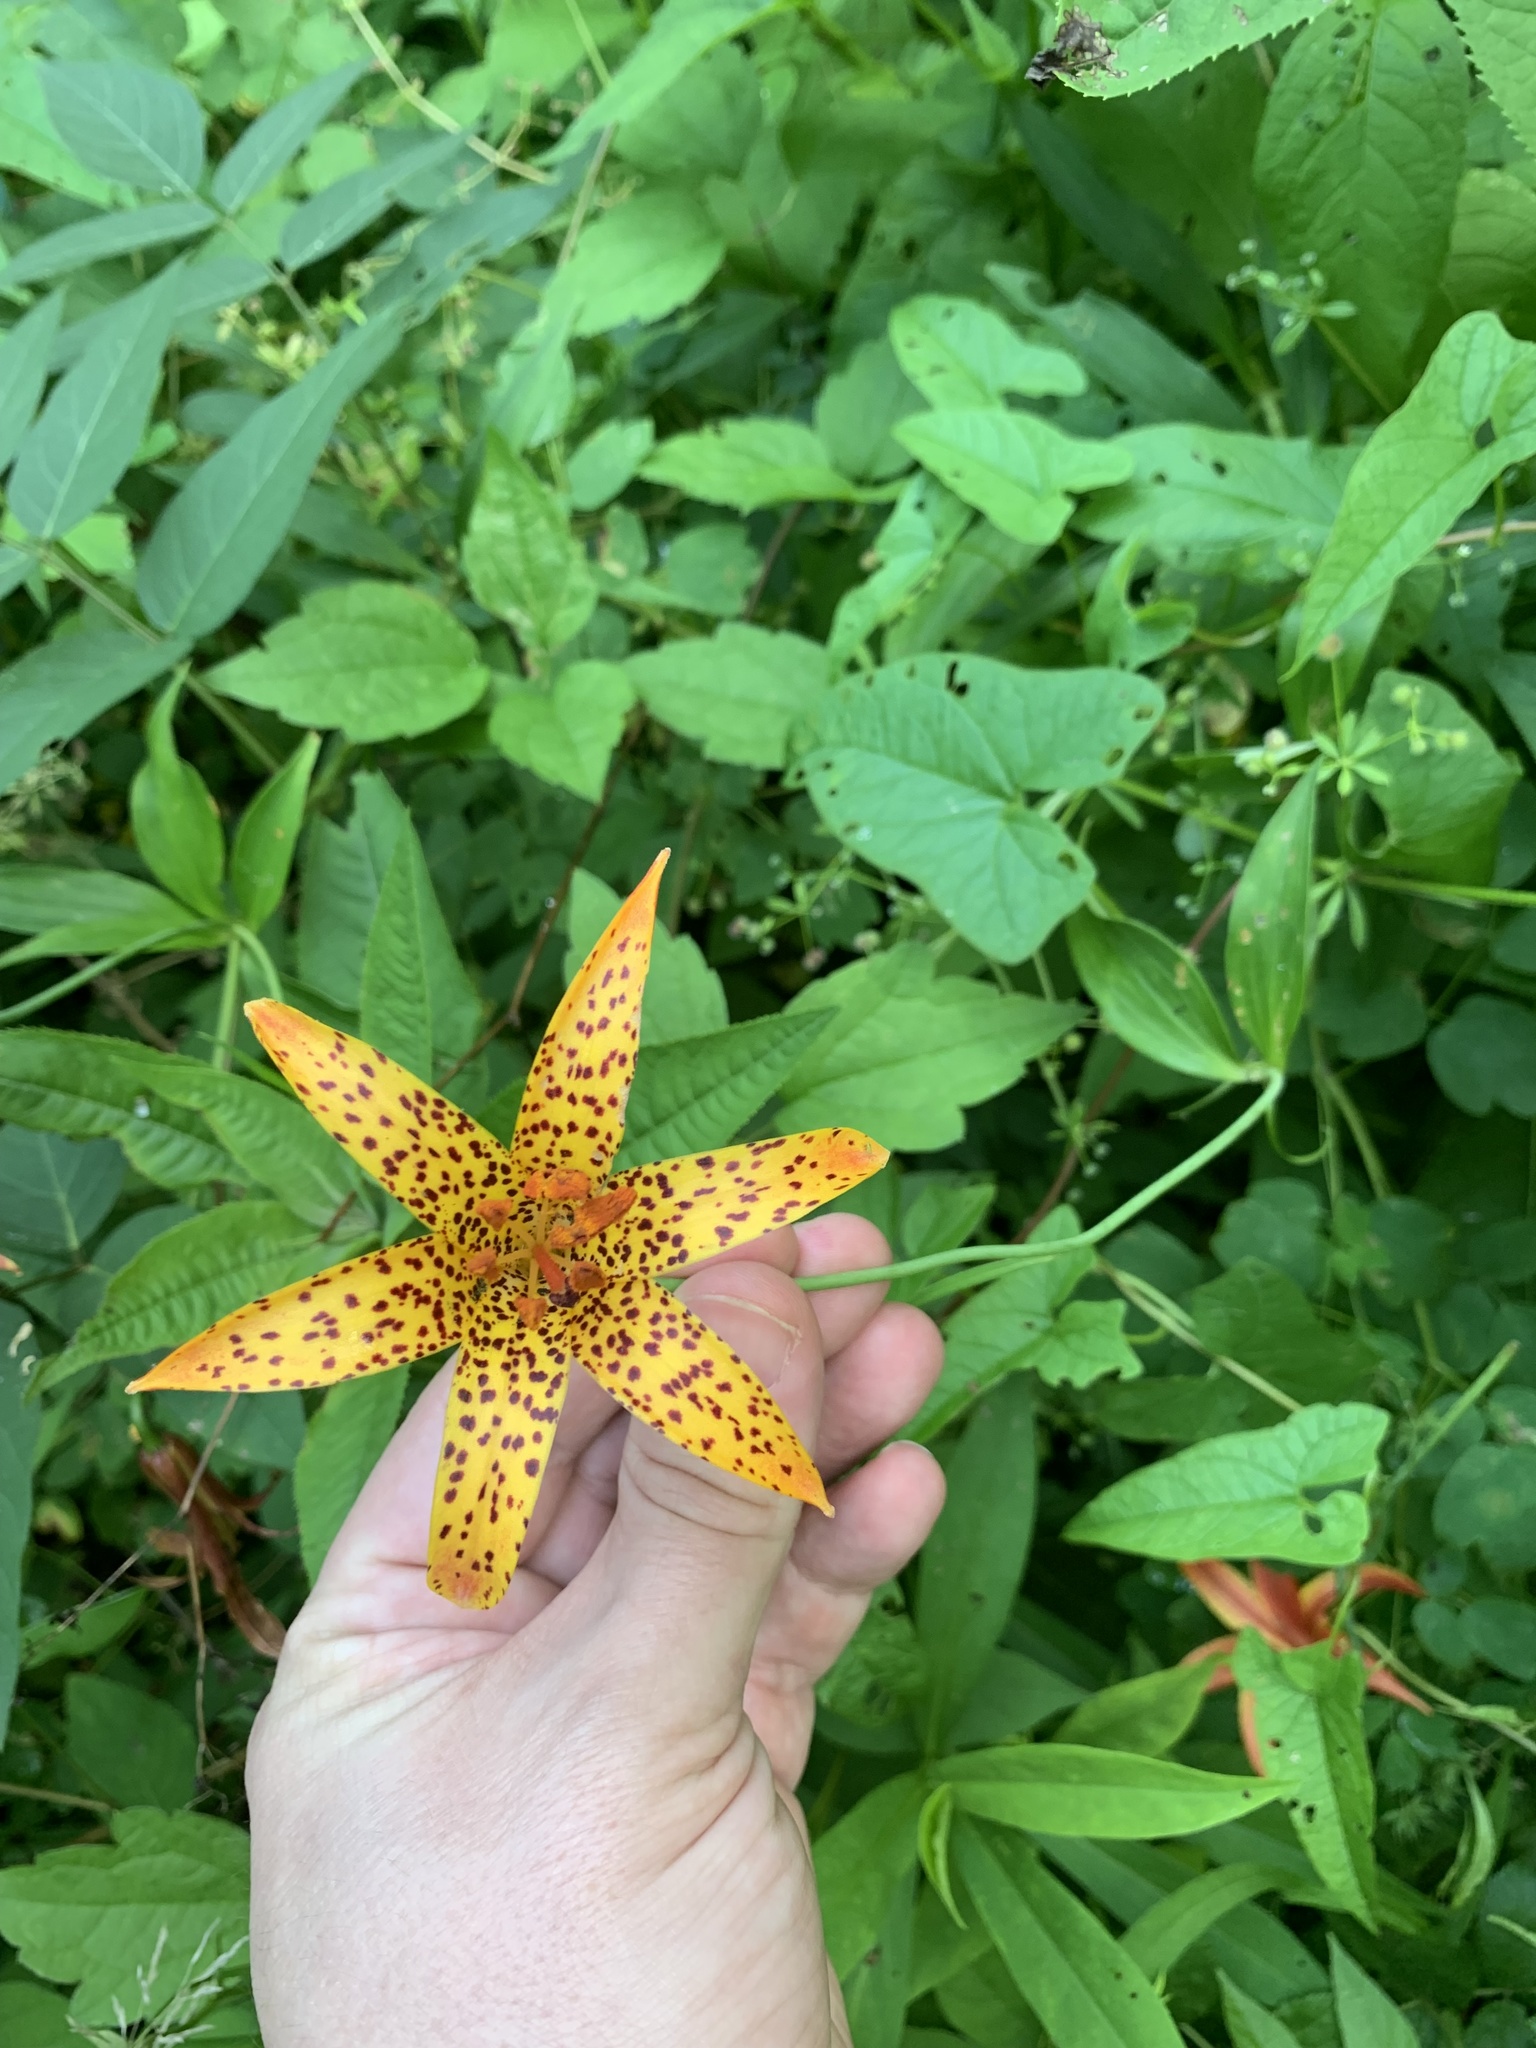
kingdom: Plantae
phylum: Tracheophyta
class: Liliopsida
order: Liliales
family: Liliaceae
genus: Lilium
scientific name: Lilium canadense
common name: Canada lily
